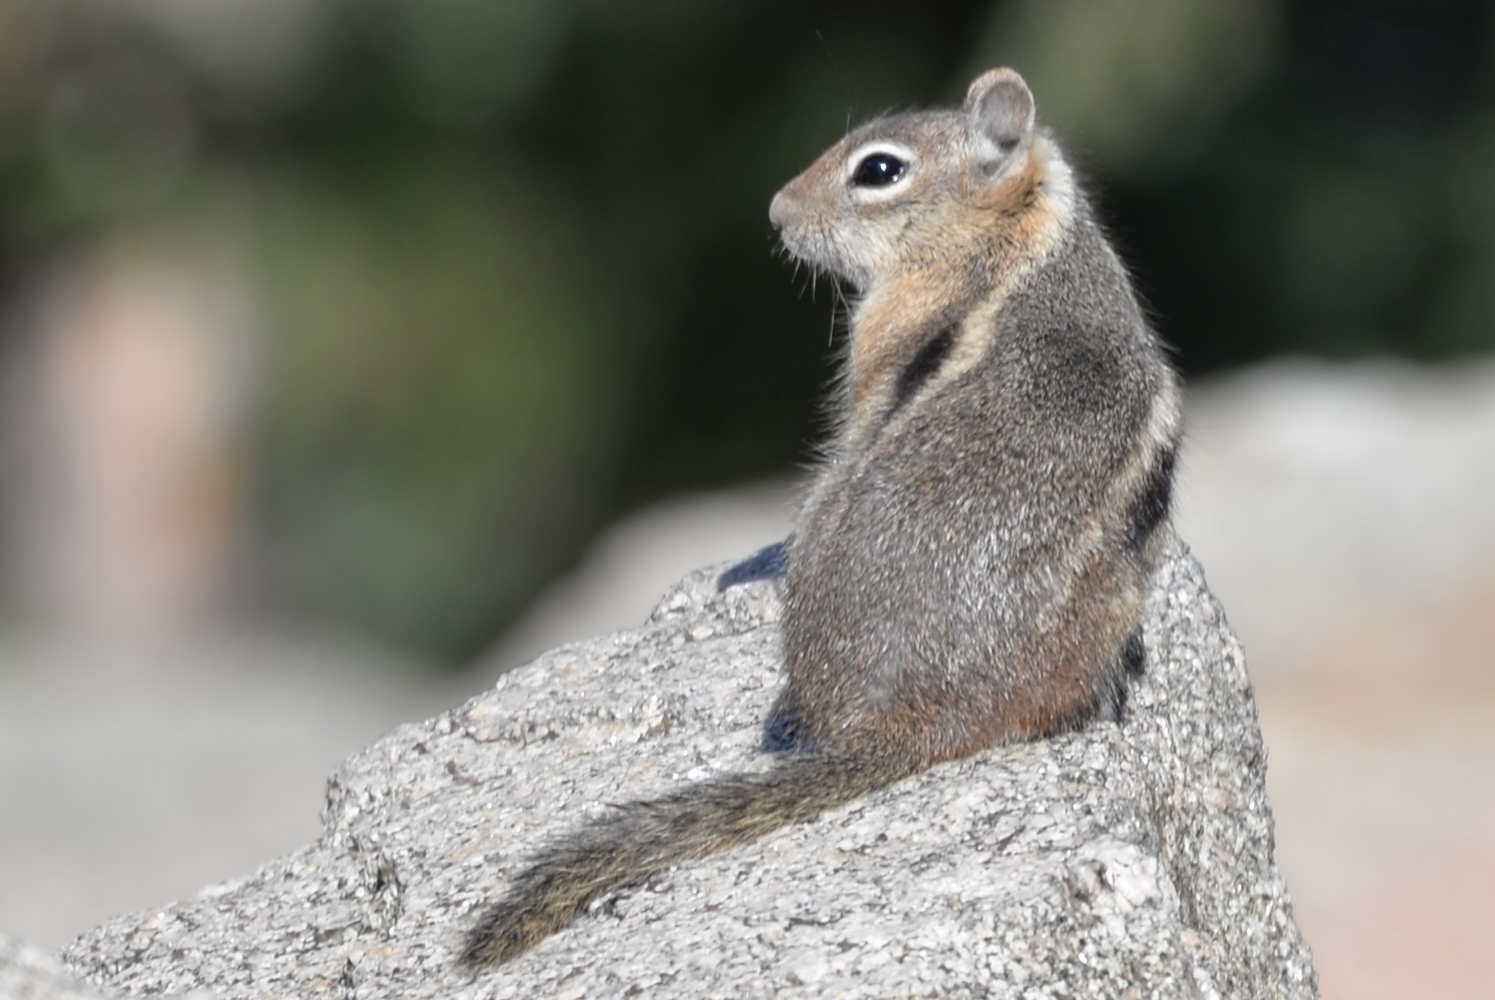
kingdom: Animalia
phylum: Chordata
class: Mammalia
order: Rodentia
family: Sciuridae
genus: Callospermophilus
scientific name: Callospermophilus lateralis
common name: Golden-mantled ground squirrel
